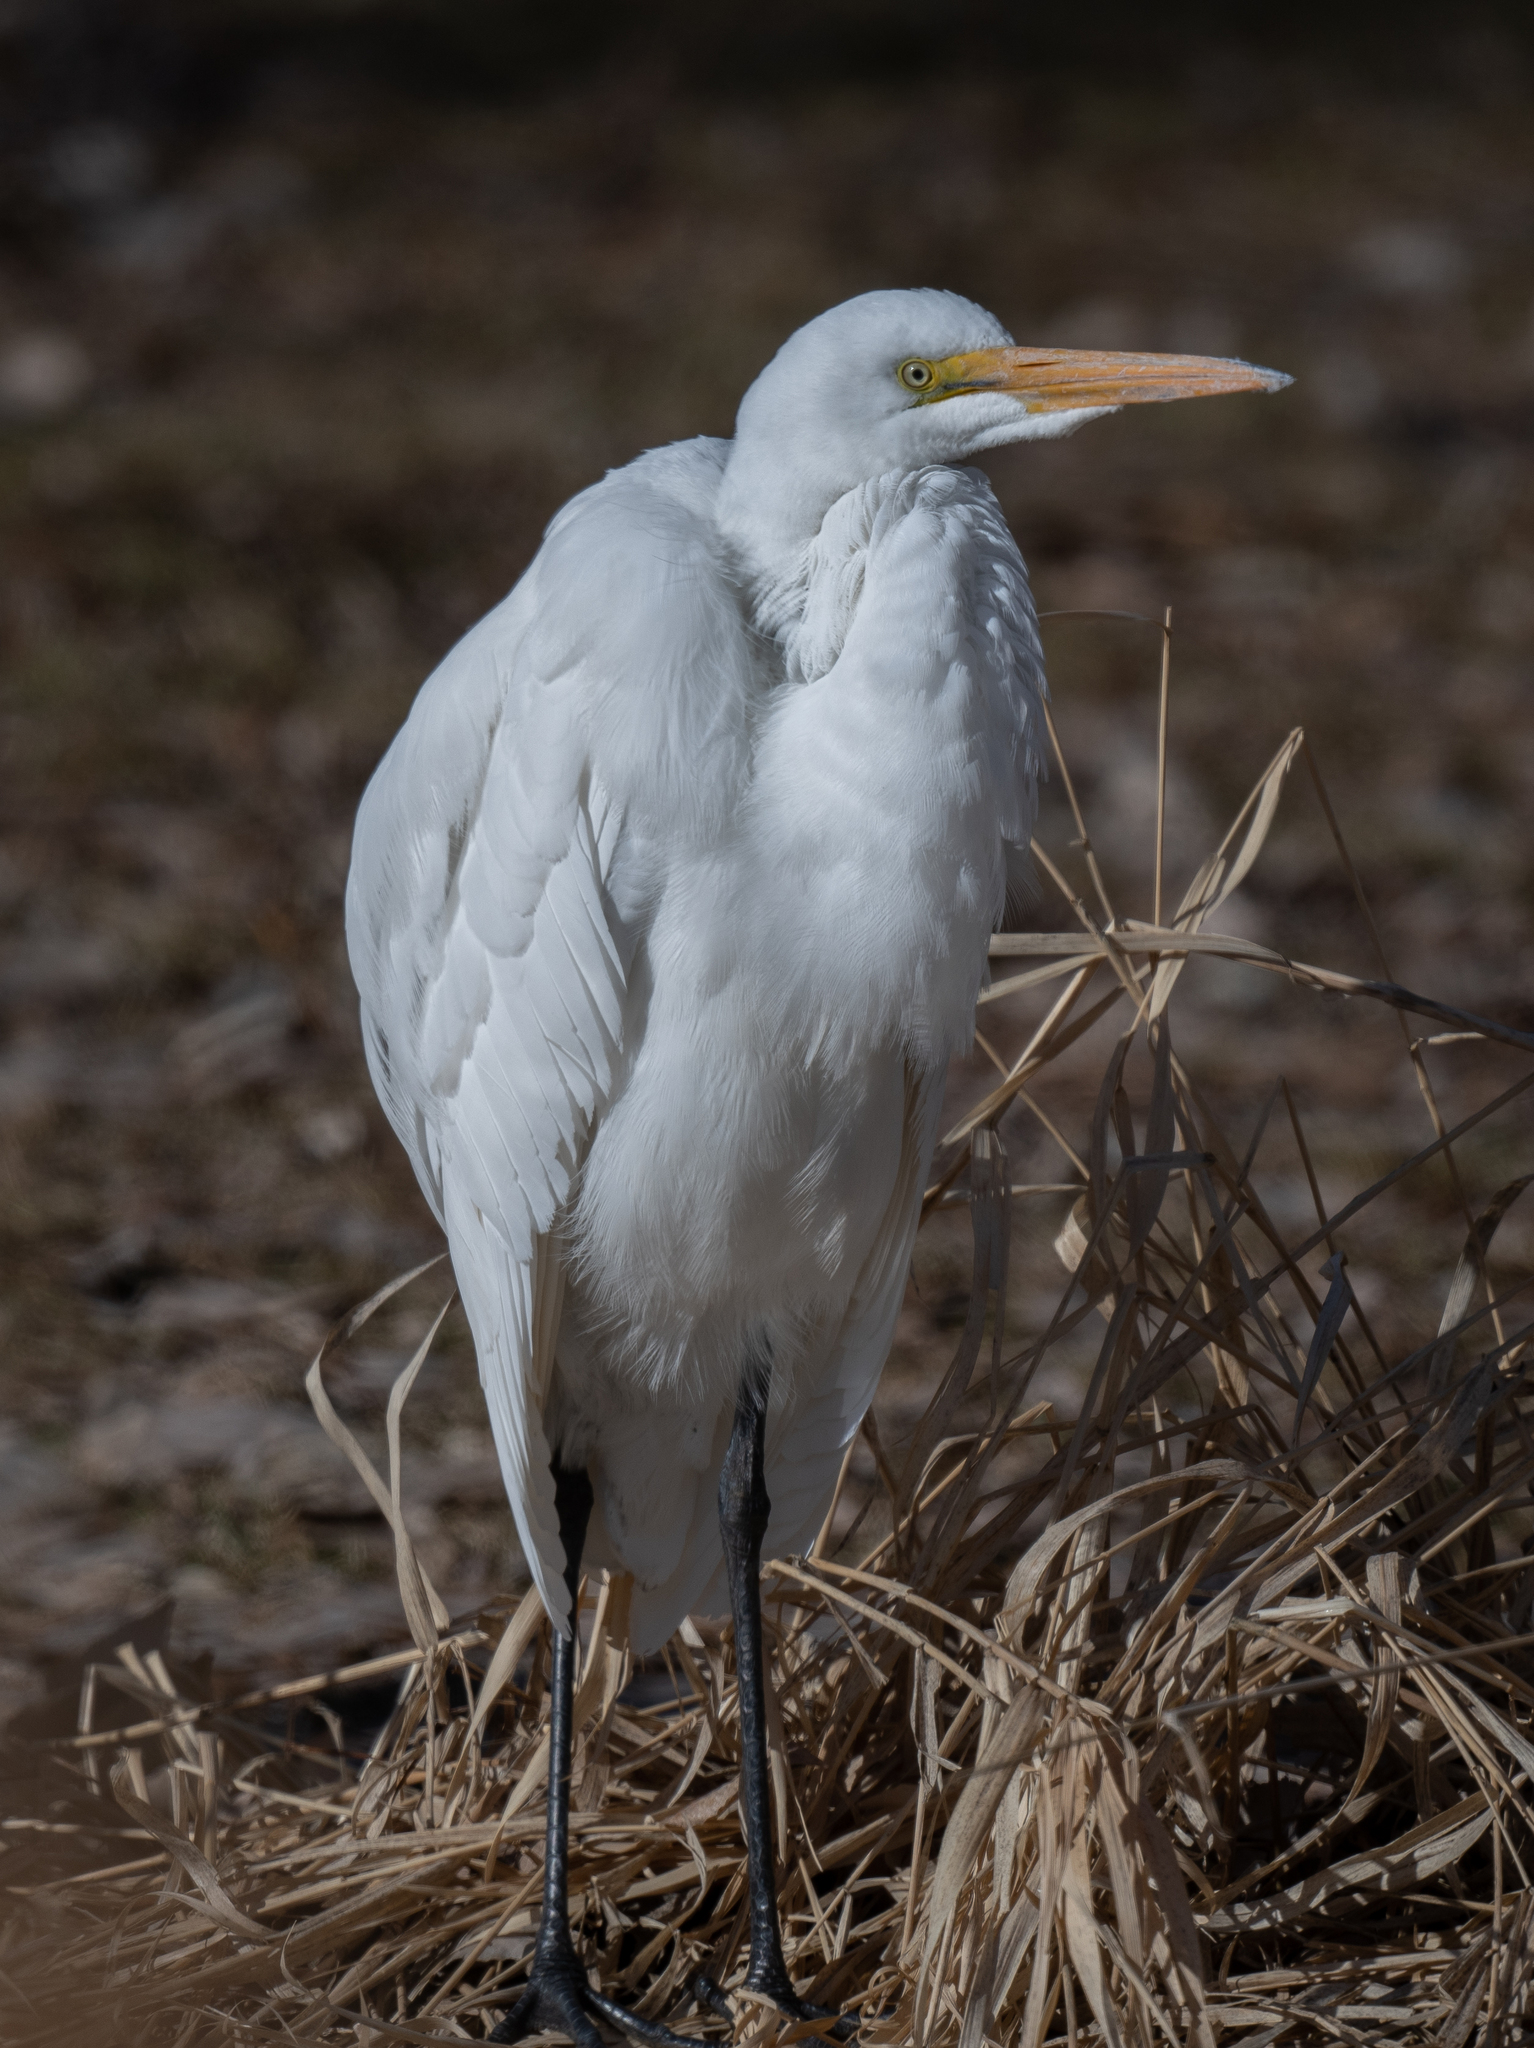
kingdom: Animalia
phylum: Chordata
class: Aves
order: Pelecaniformes
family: Ardeidae
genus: Ardea
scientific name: Ardea alba
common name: Great egret
